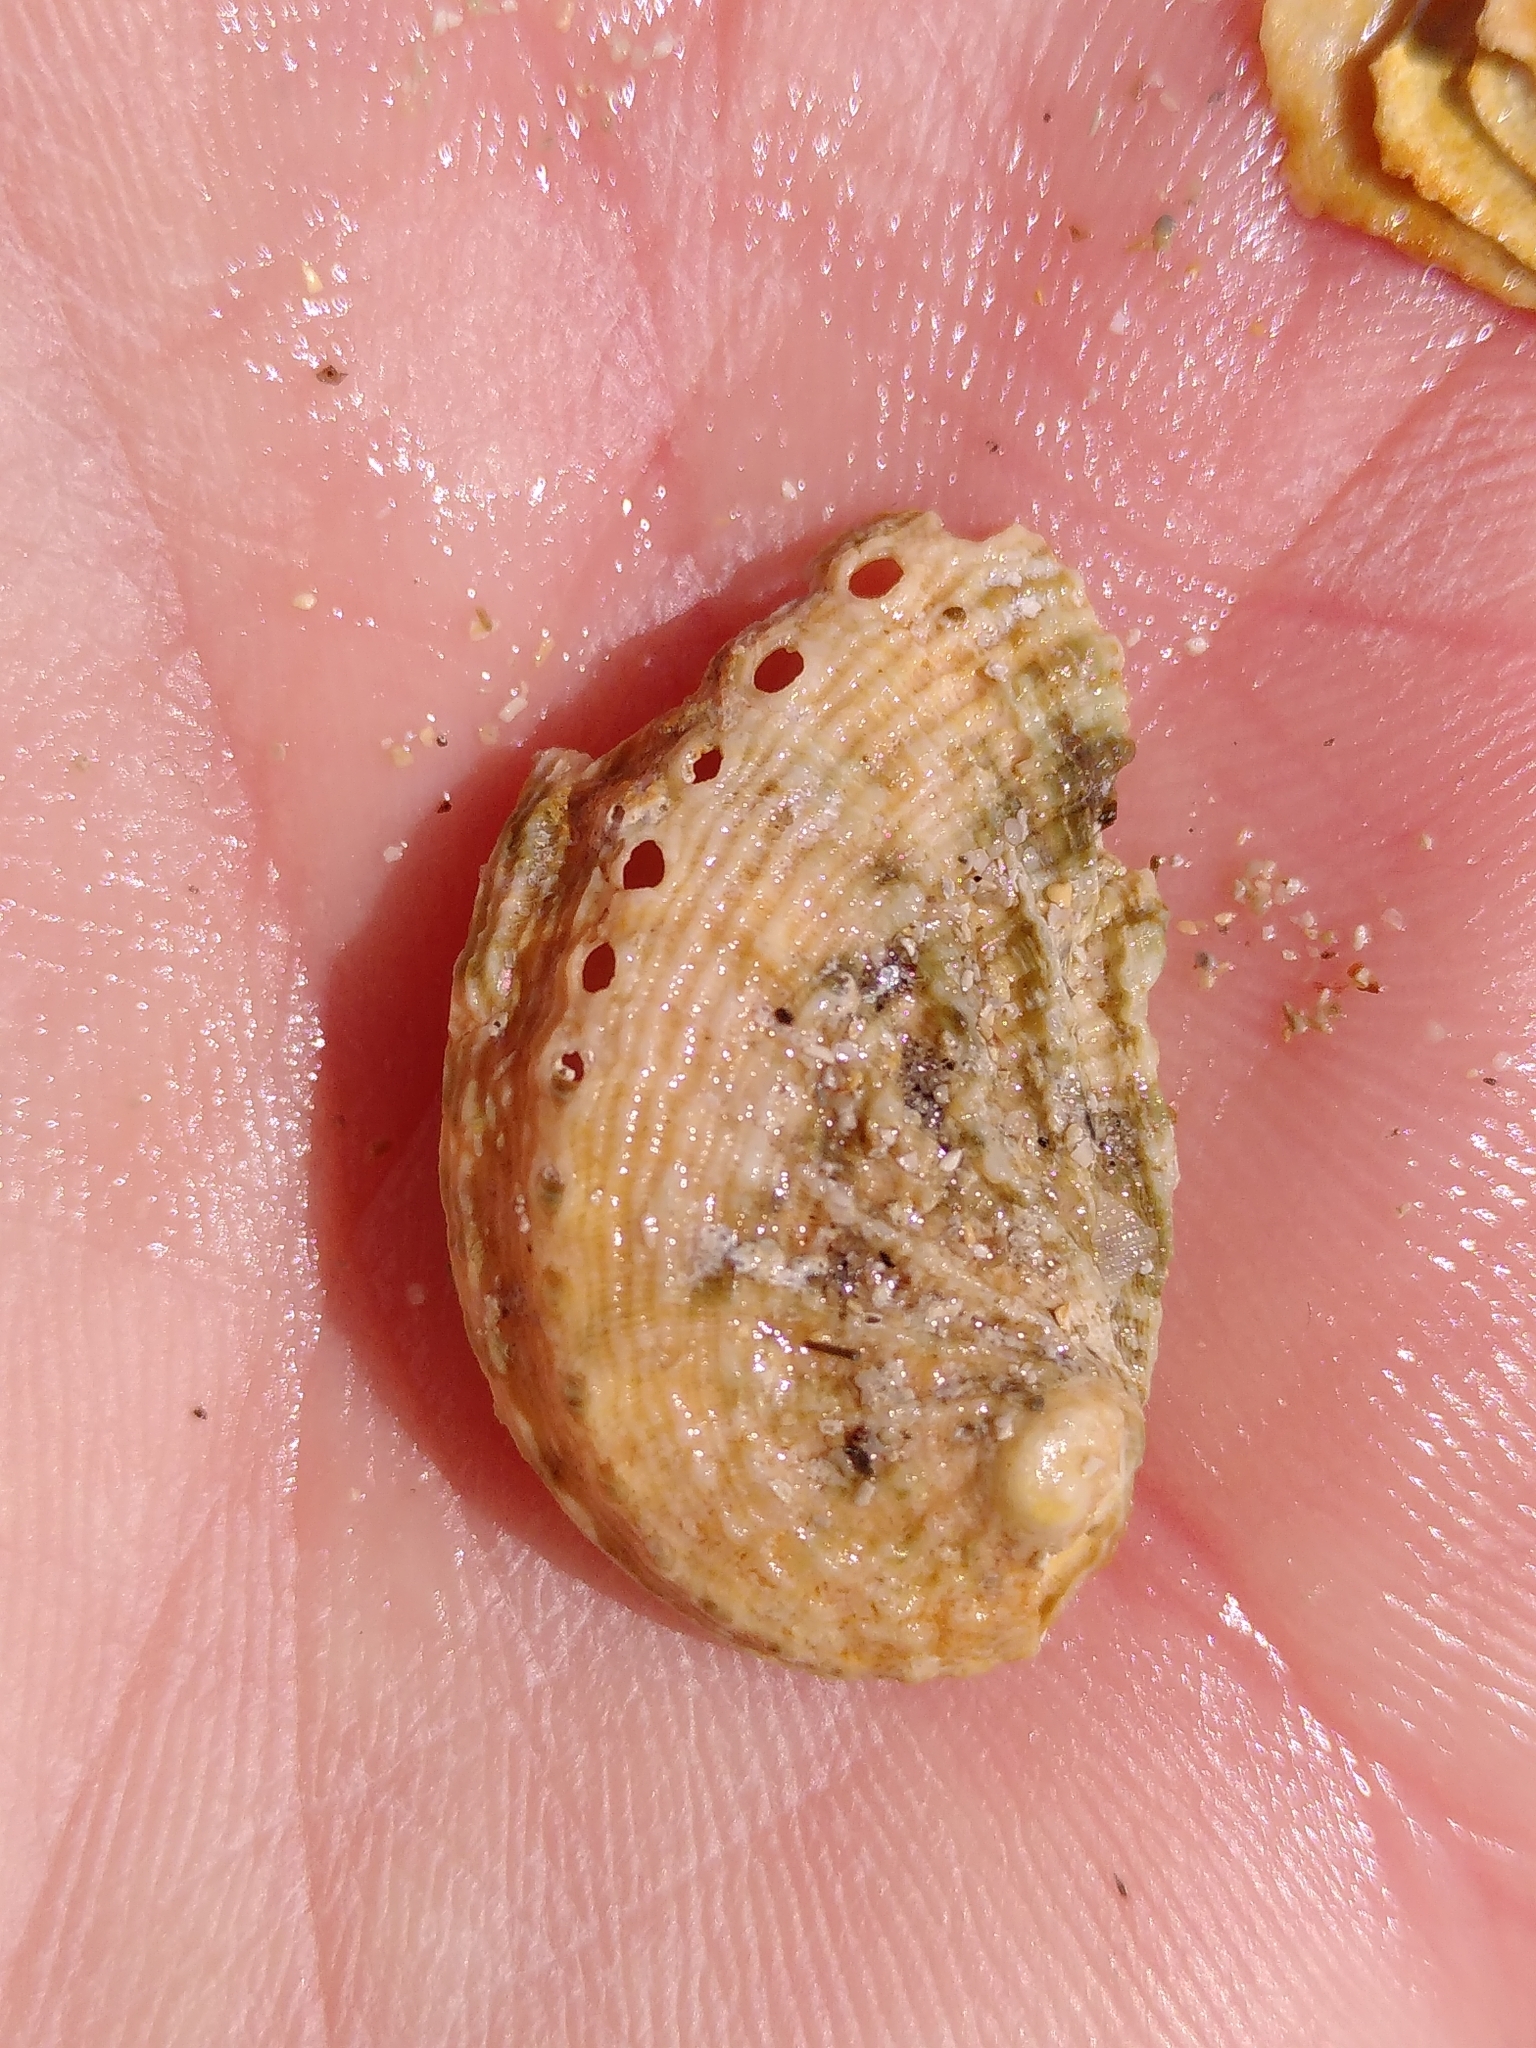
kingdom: Animalia
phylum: Mollusca
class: Gastropoda
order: Lepetellida
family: Haliotidae
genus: Haliotis
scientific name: Haliotis tuberculata
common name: Green ormer
